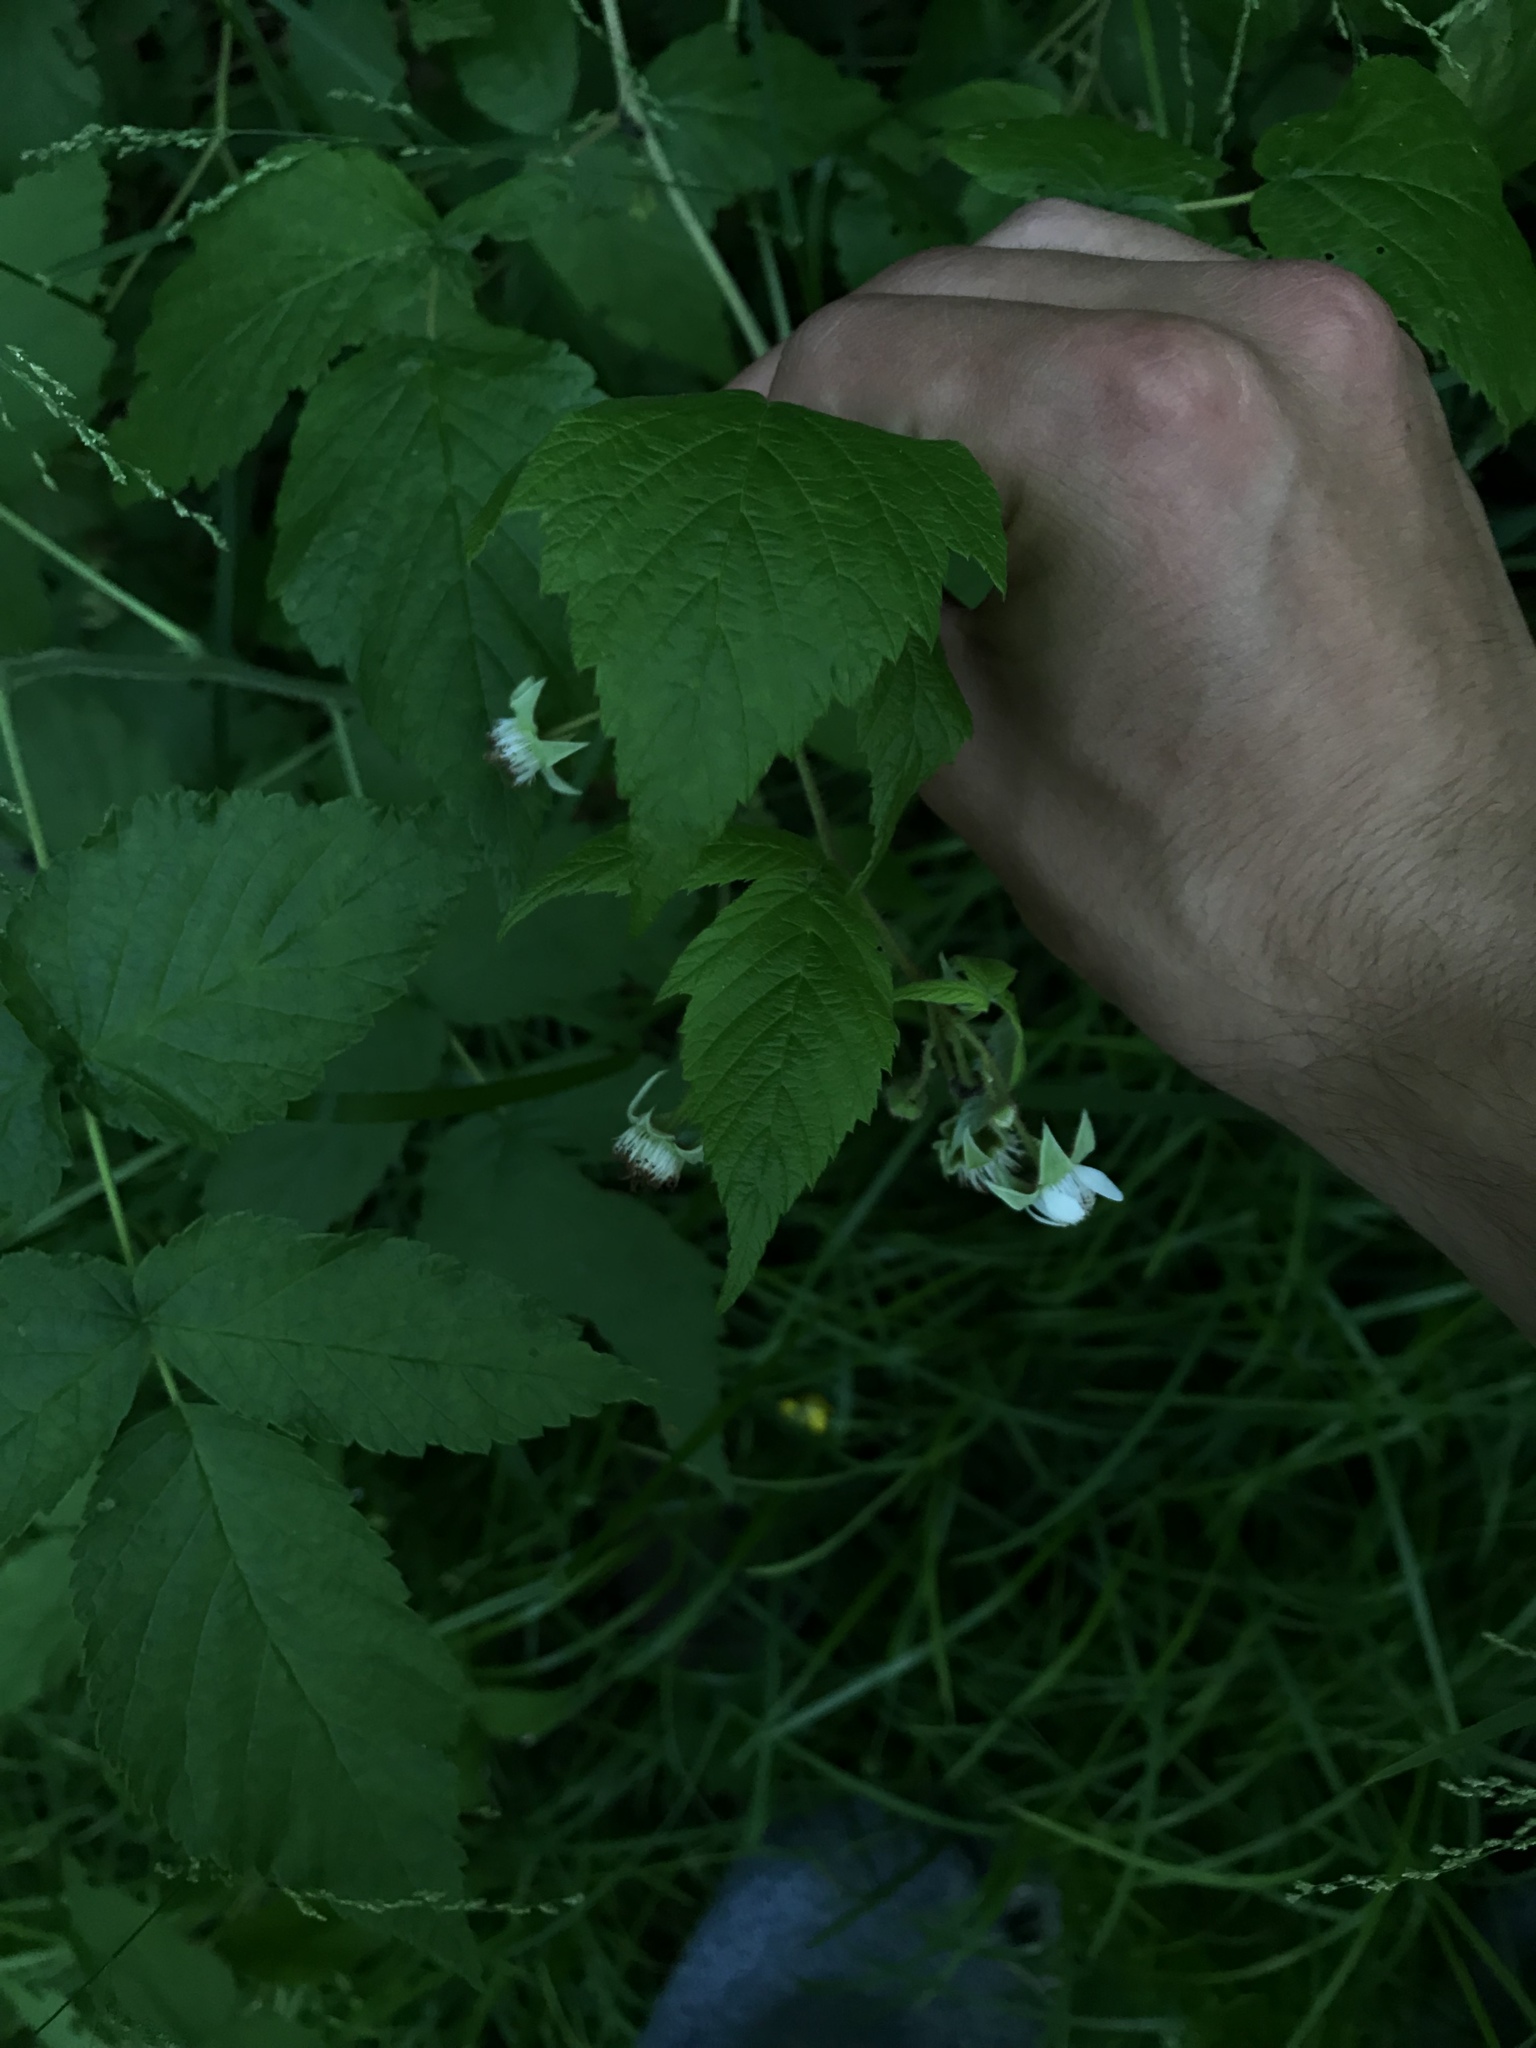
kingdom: Plantae
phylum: Tracheophyta
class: Magnoliopsida
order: Rosales
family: Rosaceae
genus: Rubus
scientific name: Rubus idaeus
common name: Raspberry
